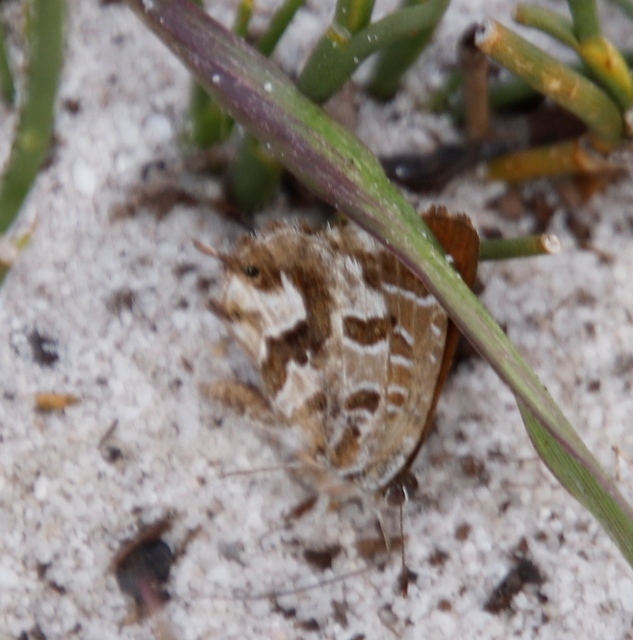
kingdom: Animalia
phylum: Arthropoda
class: Insecta
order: Lepidoptera
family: Lycaenidae
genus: Cacyreus
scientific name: Cacyreus fracta
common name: Water bronze
